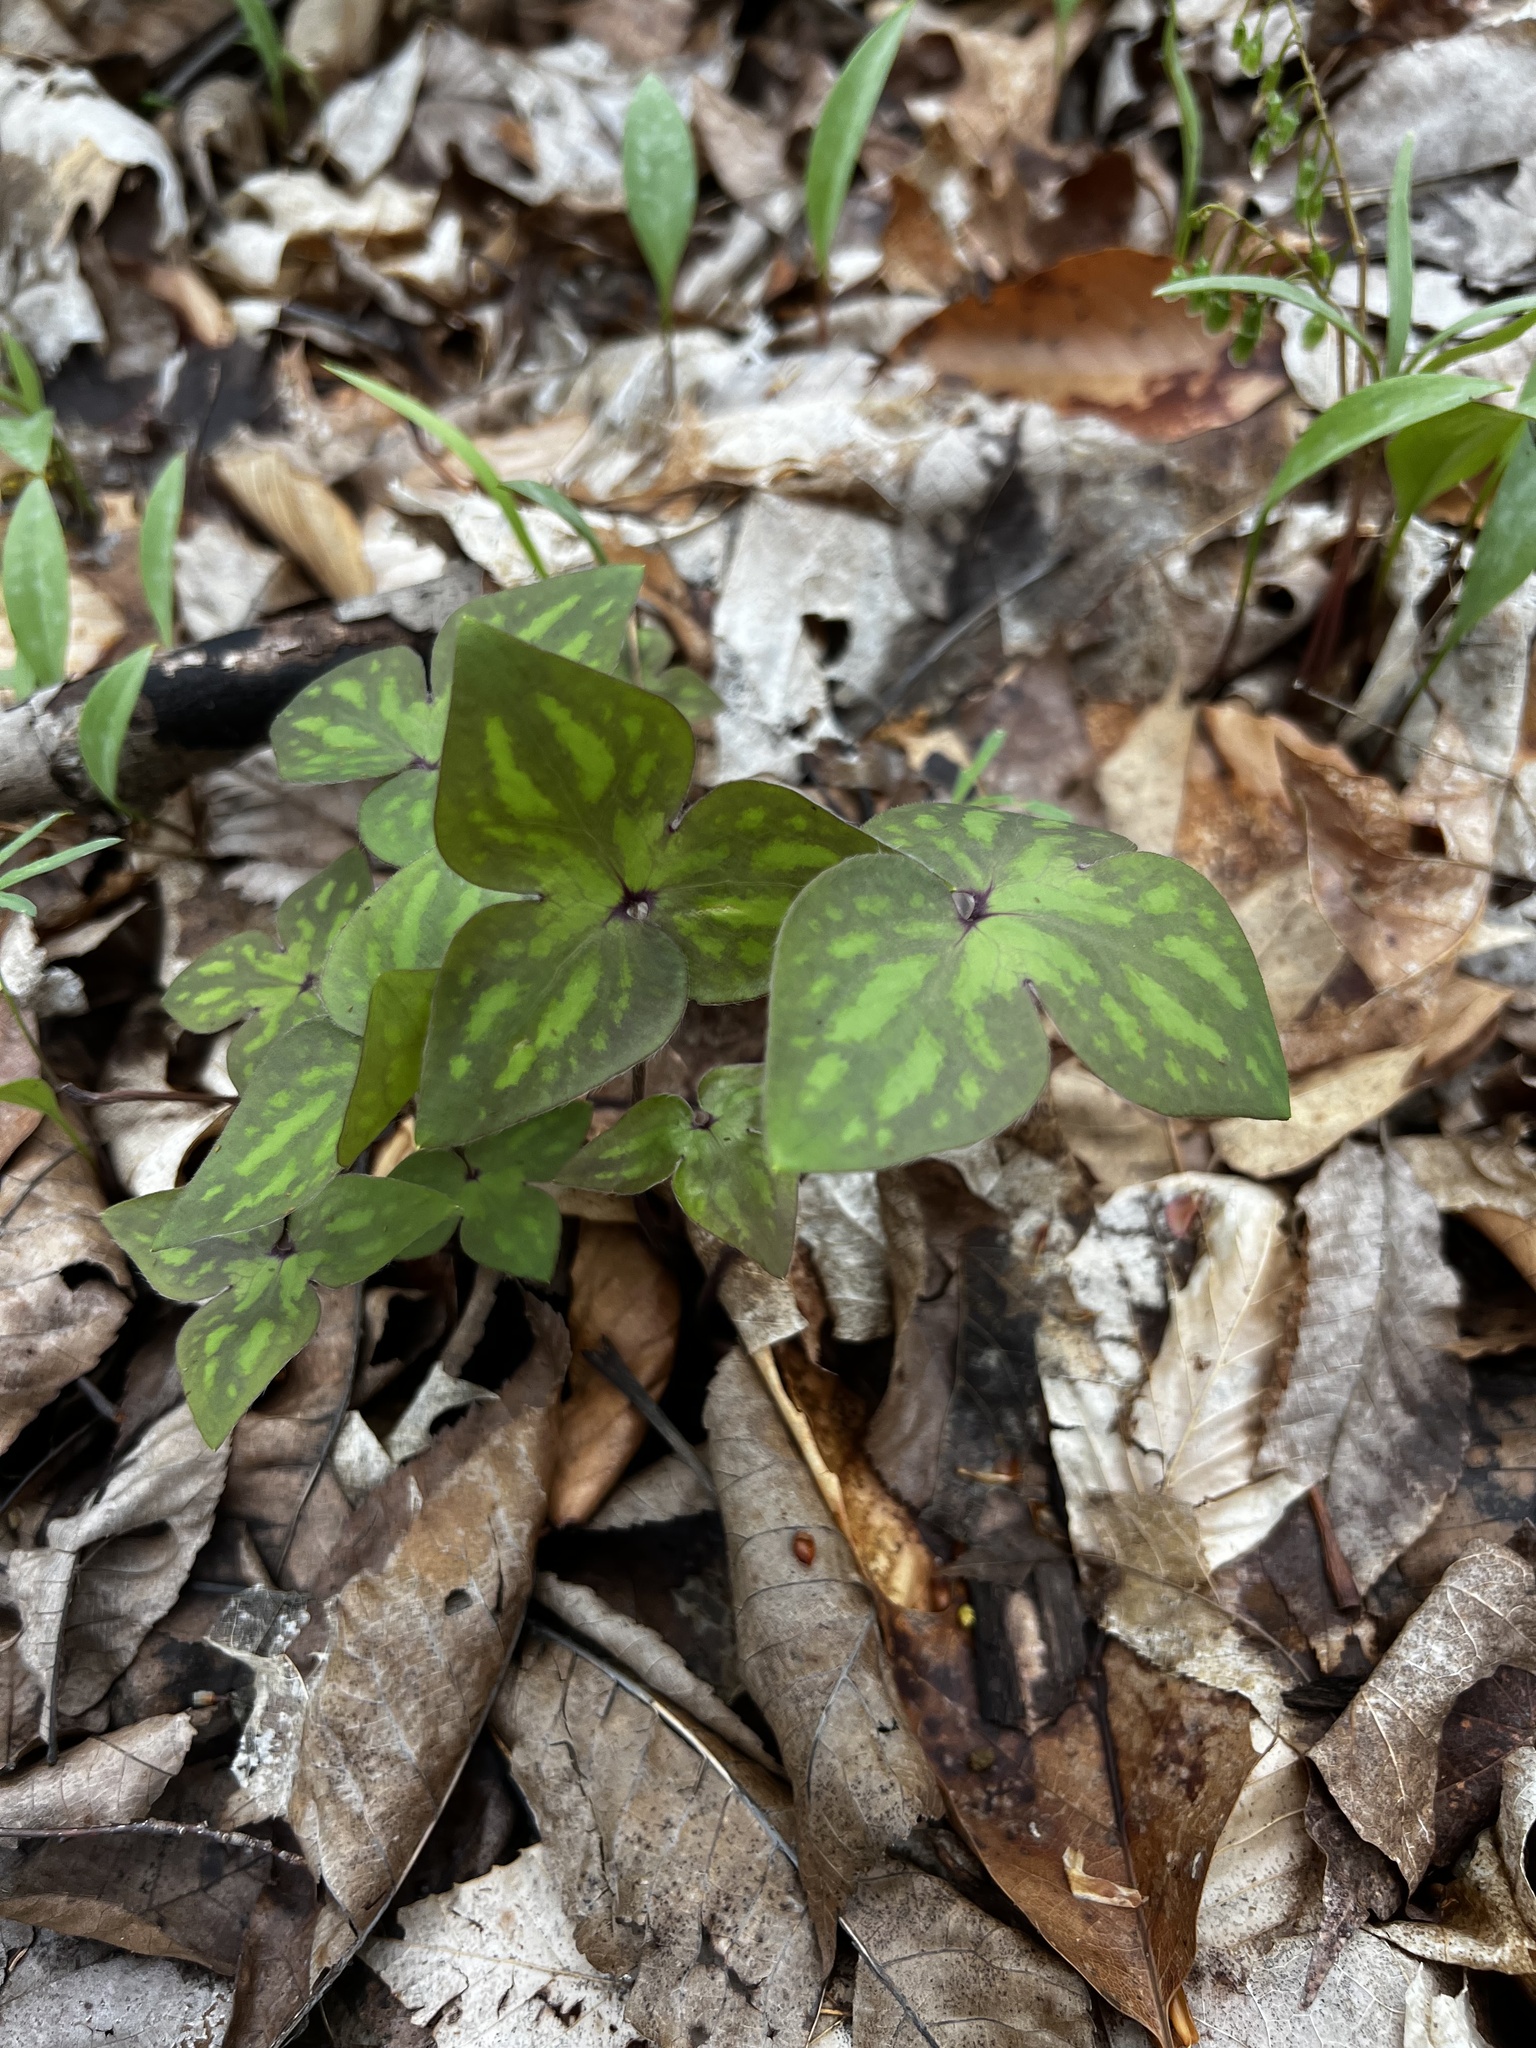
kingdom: Plantae
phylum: Tracheophyta
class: Magnoliopsida
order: Ranunculales
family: Ranunculaceae
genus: Hepatica
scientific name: Hepatica acutiloba
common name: Sharp-lobed hepatica
